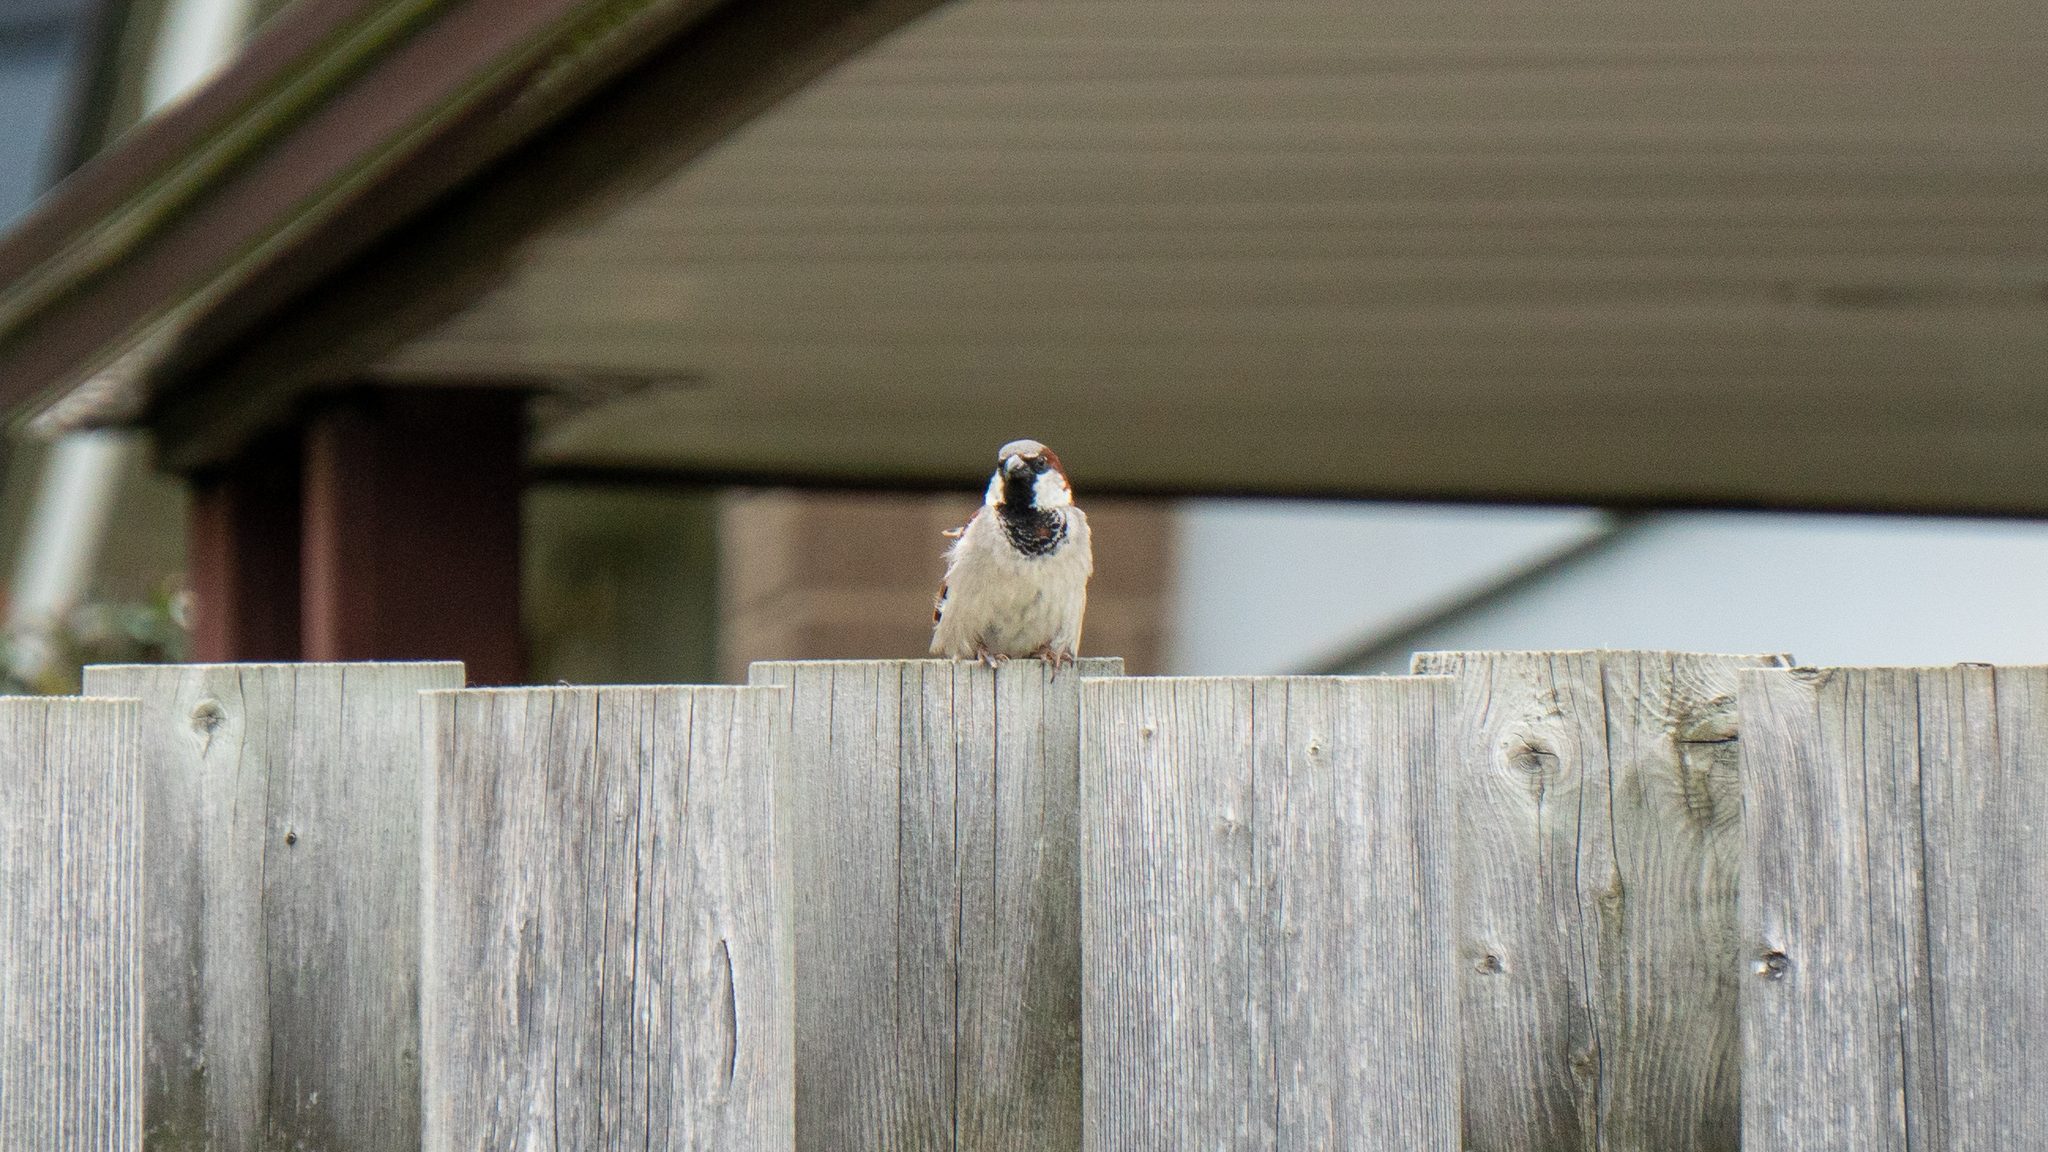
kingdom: Animalia
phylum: Chordata
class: Aves
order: Passeriformes
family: Passeridae
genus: Passer
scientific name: Passer domesticus
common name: House sparrow
